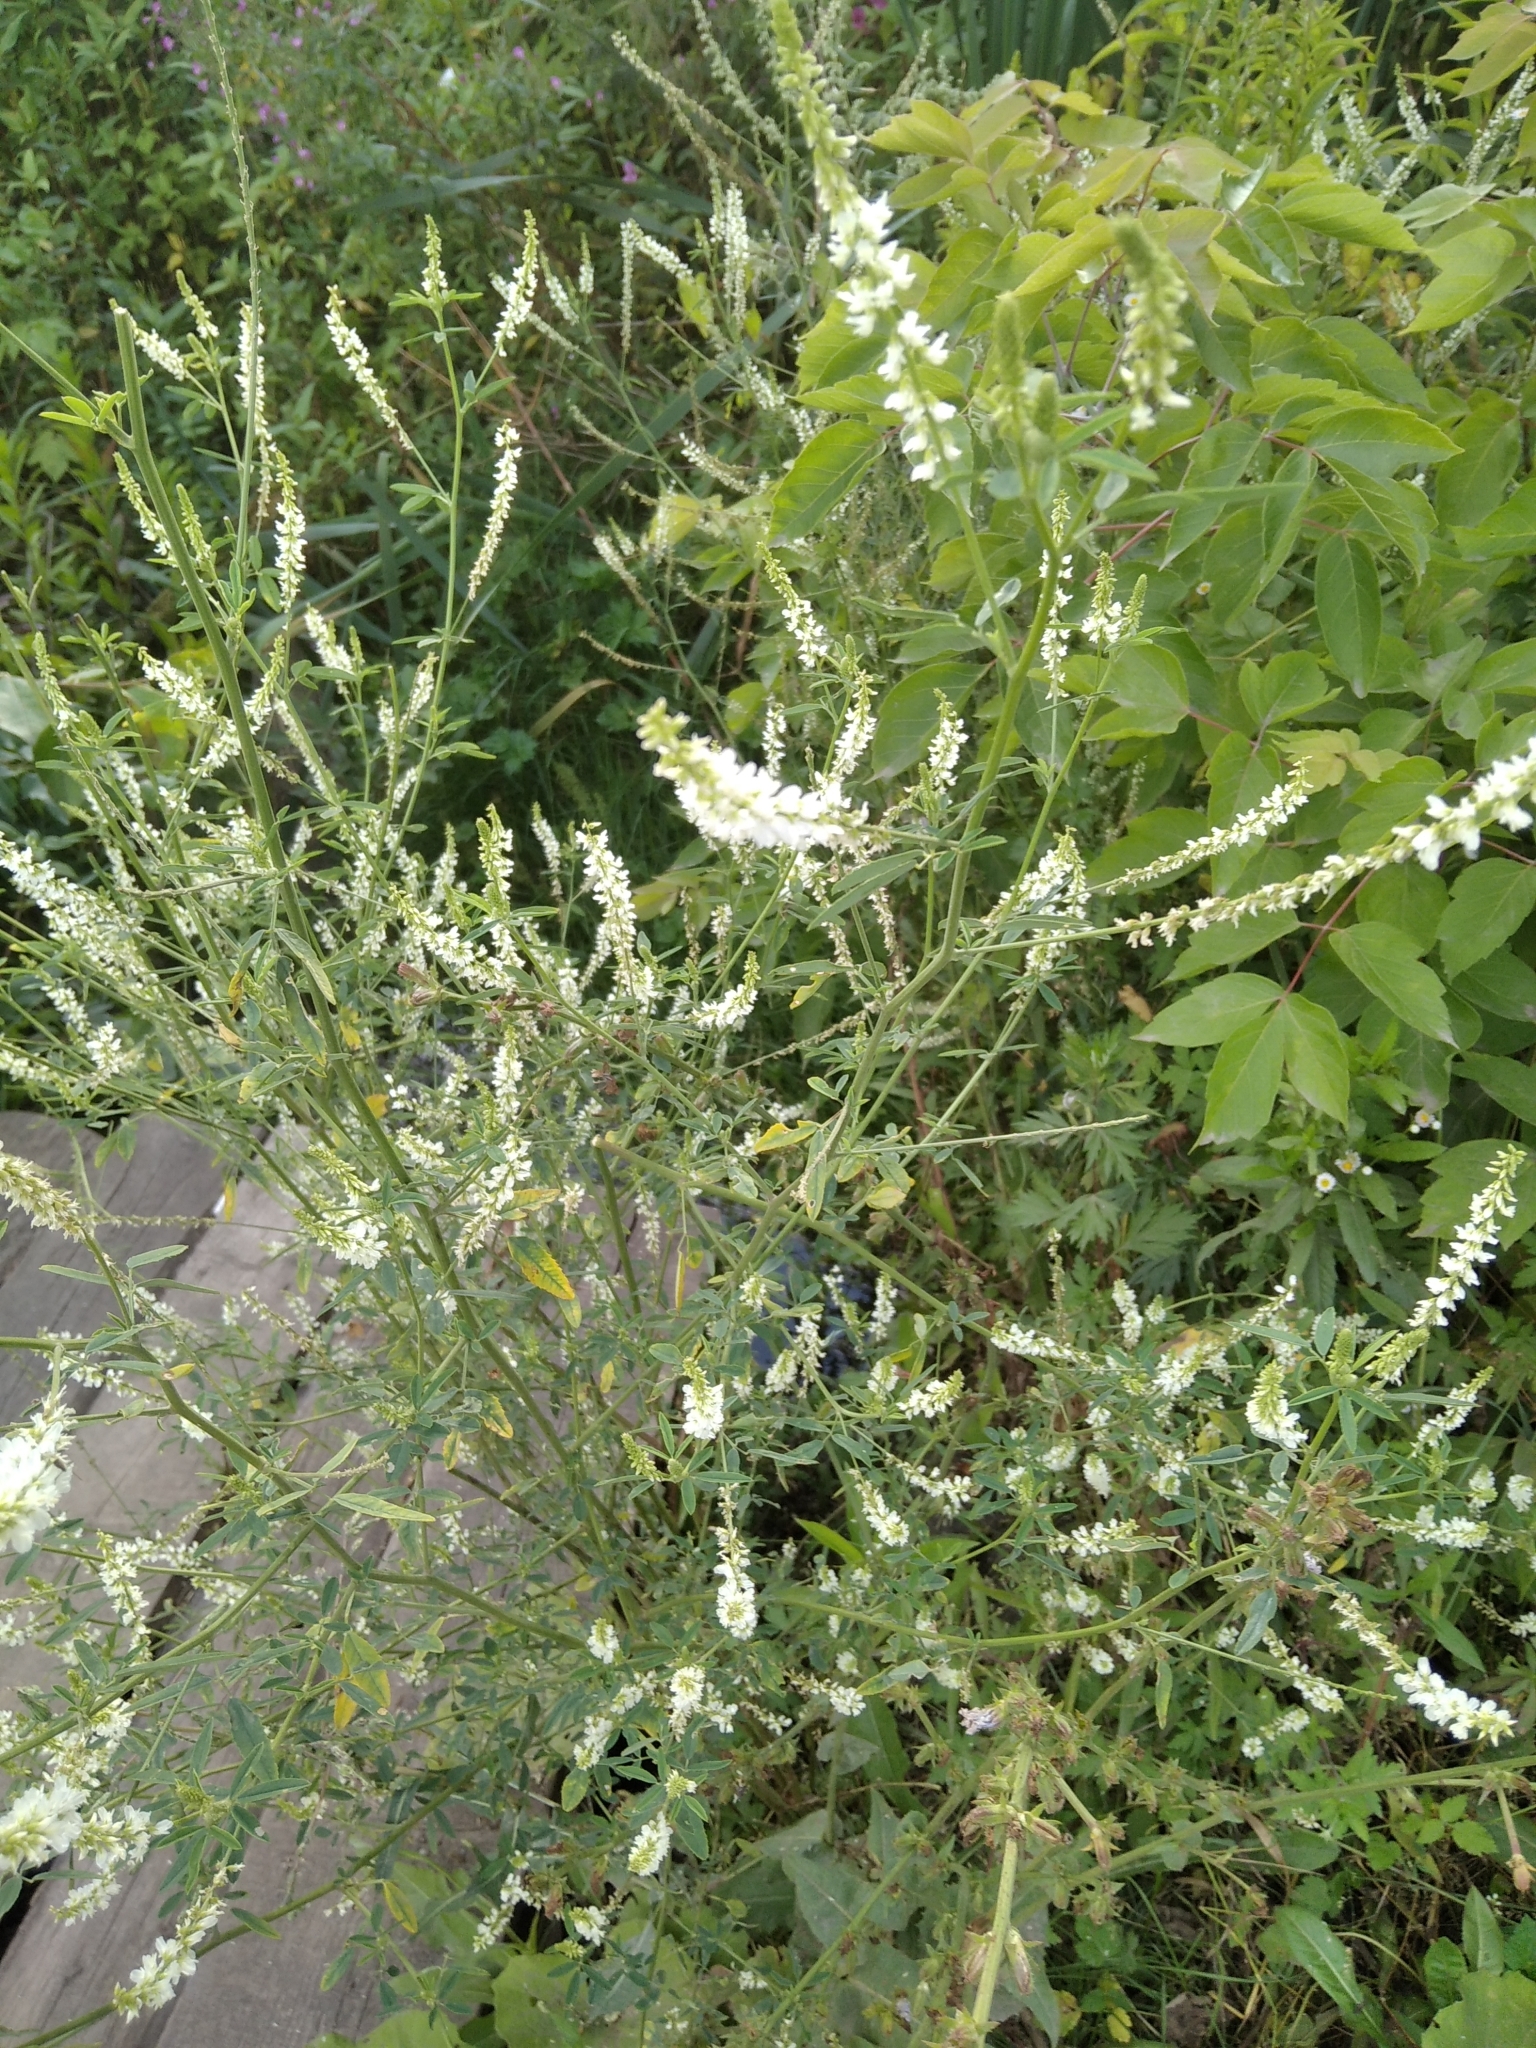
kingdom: Plantae
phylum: Tracheophyta
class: Magnoliopsida
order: Fabales
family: Fabaceae
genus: Melilotus
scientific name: Melilotus albus
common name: White melilot
